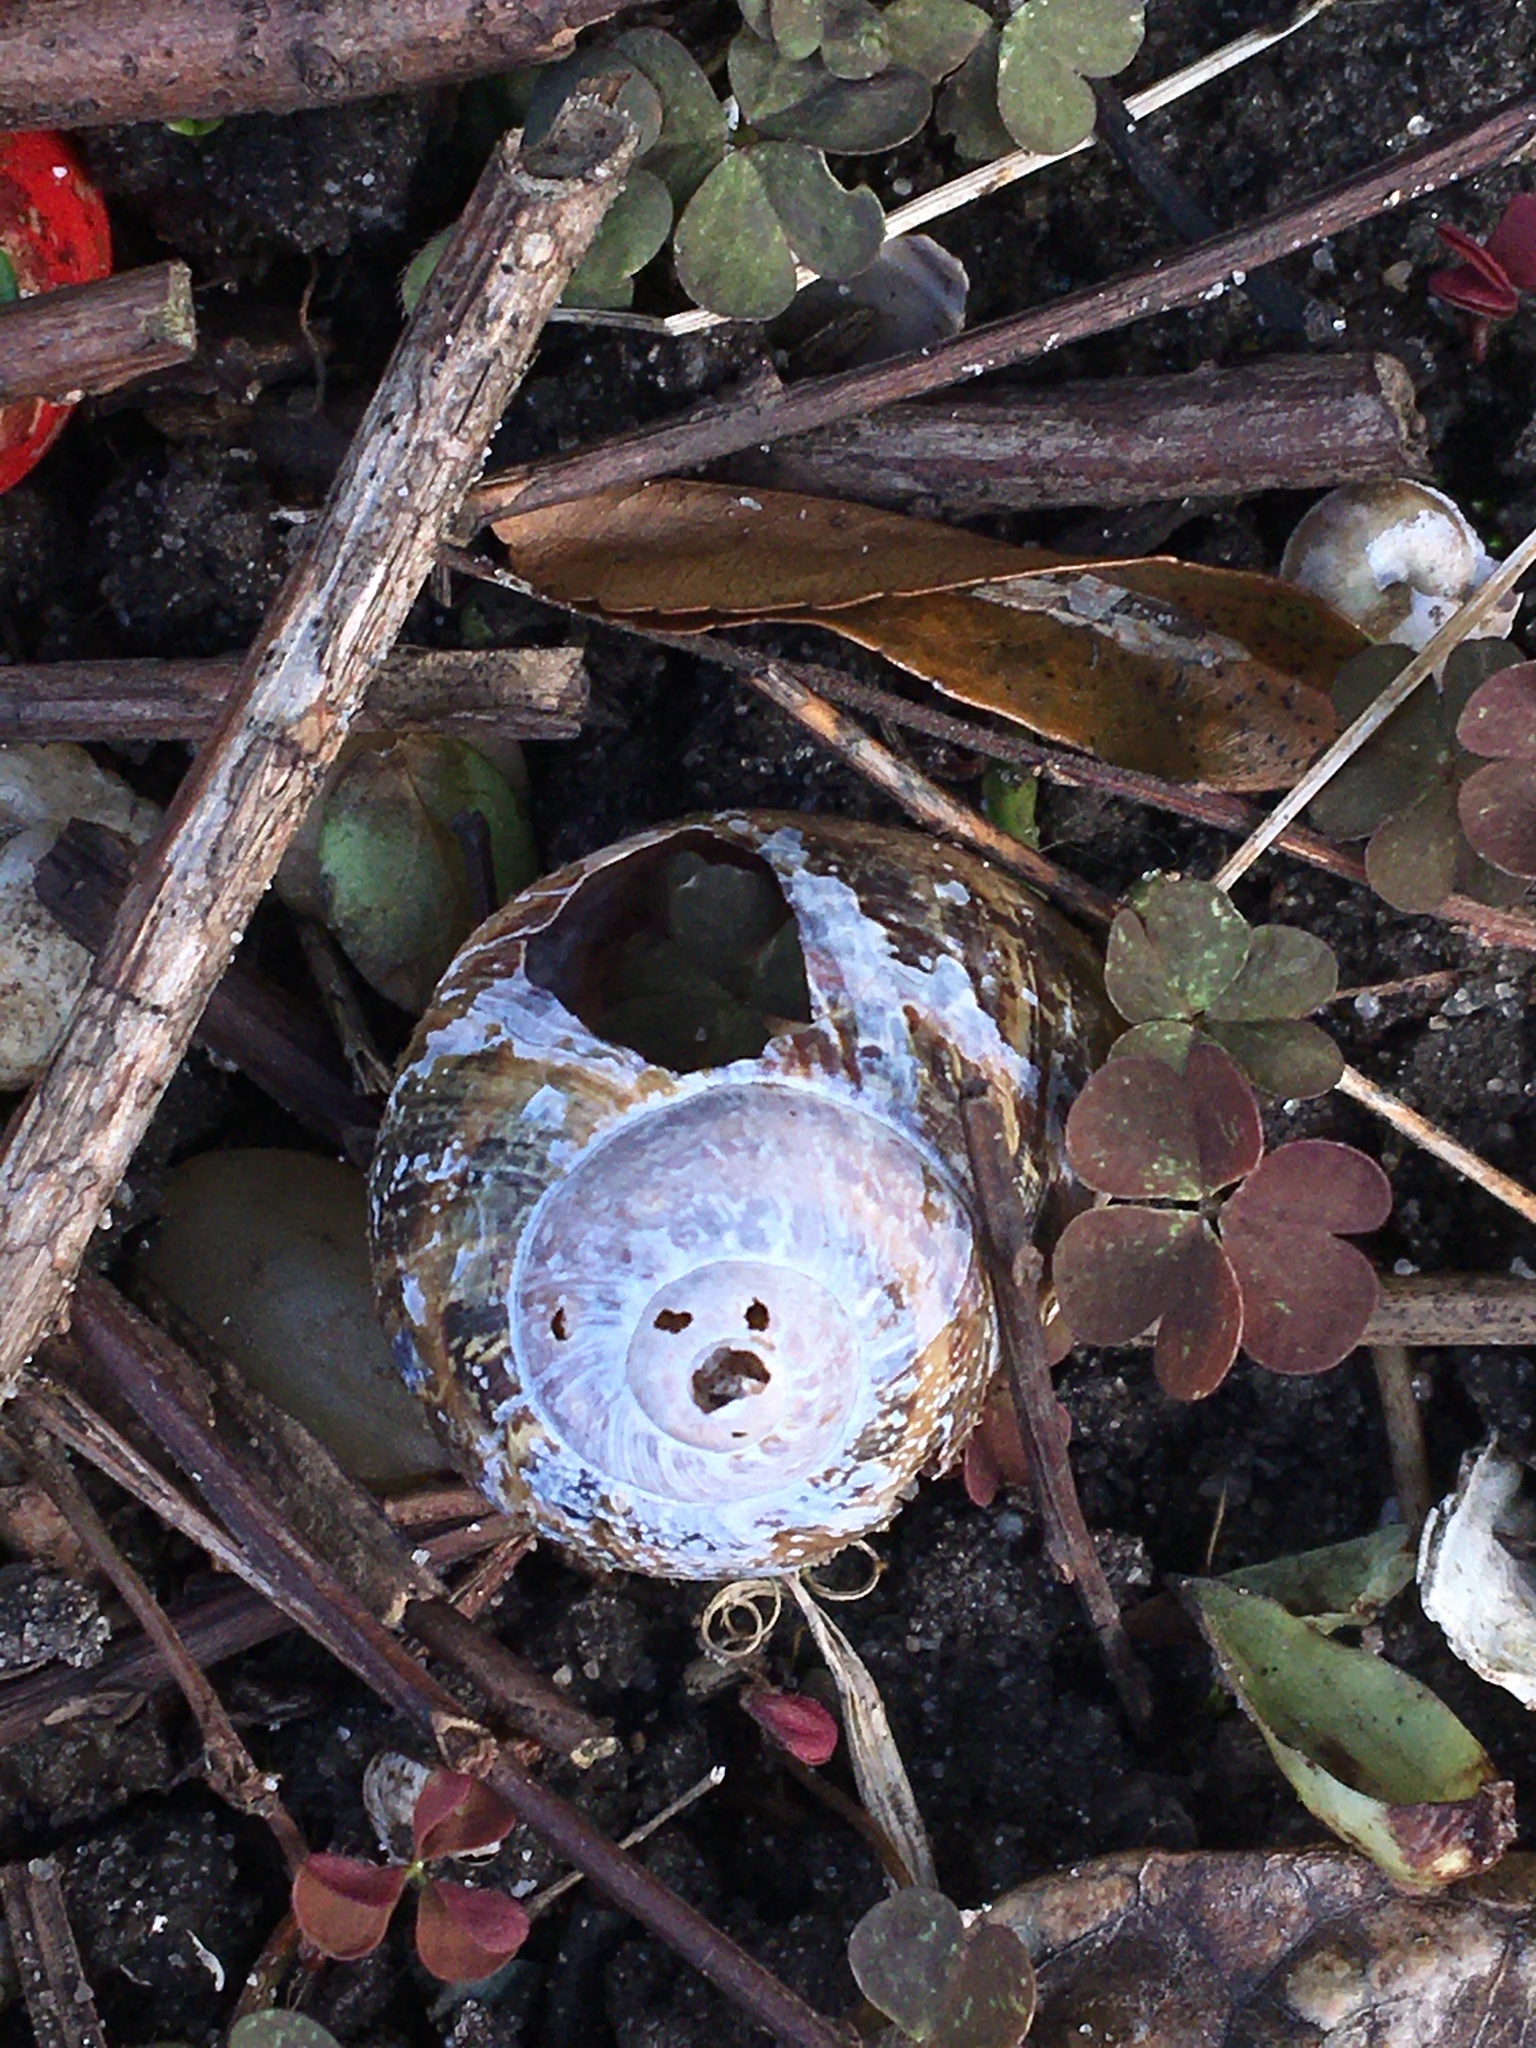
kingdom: Animalia
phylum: Mollusca
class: Gastropoda
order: Stylommatophora
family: Helicidae
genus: Cornu
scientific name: Cornu aspersum
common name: Brown garden snail
